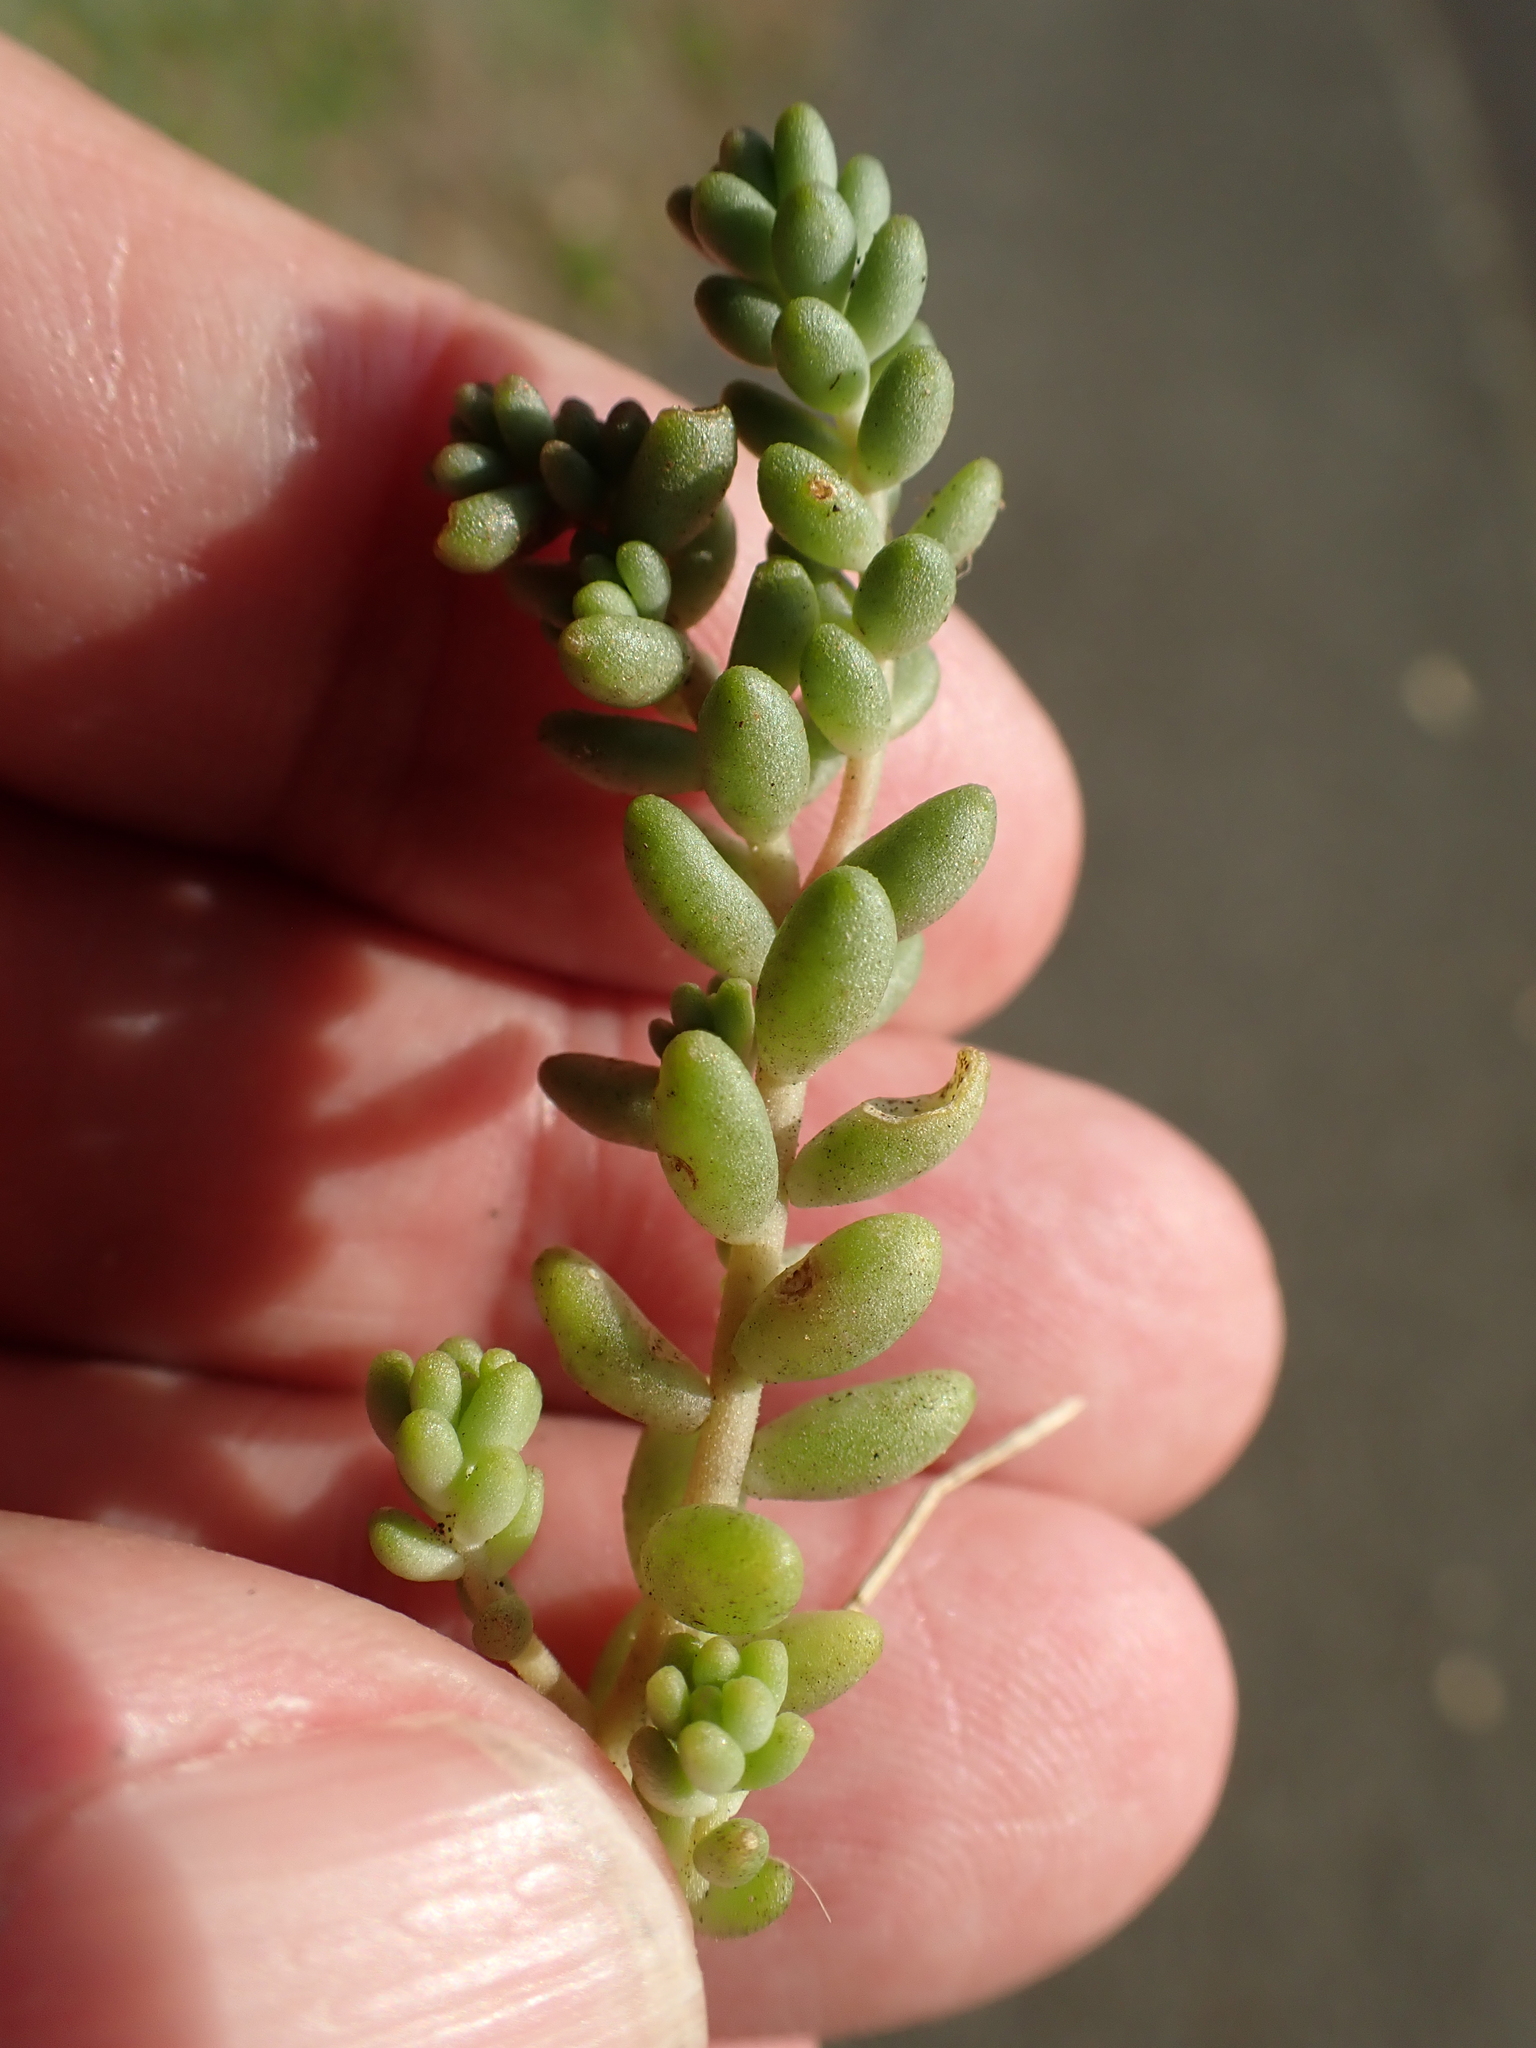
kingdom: Plantae
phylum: Tracheophyta
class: Magnoliopsida
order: Saxifragales
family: Crassulaceae
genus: Sedum
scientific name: Sedum album
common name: White stonecrop
